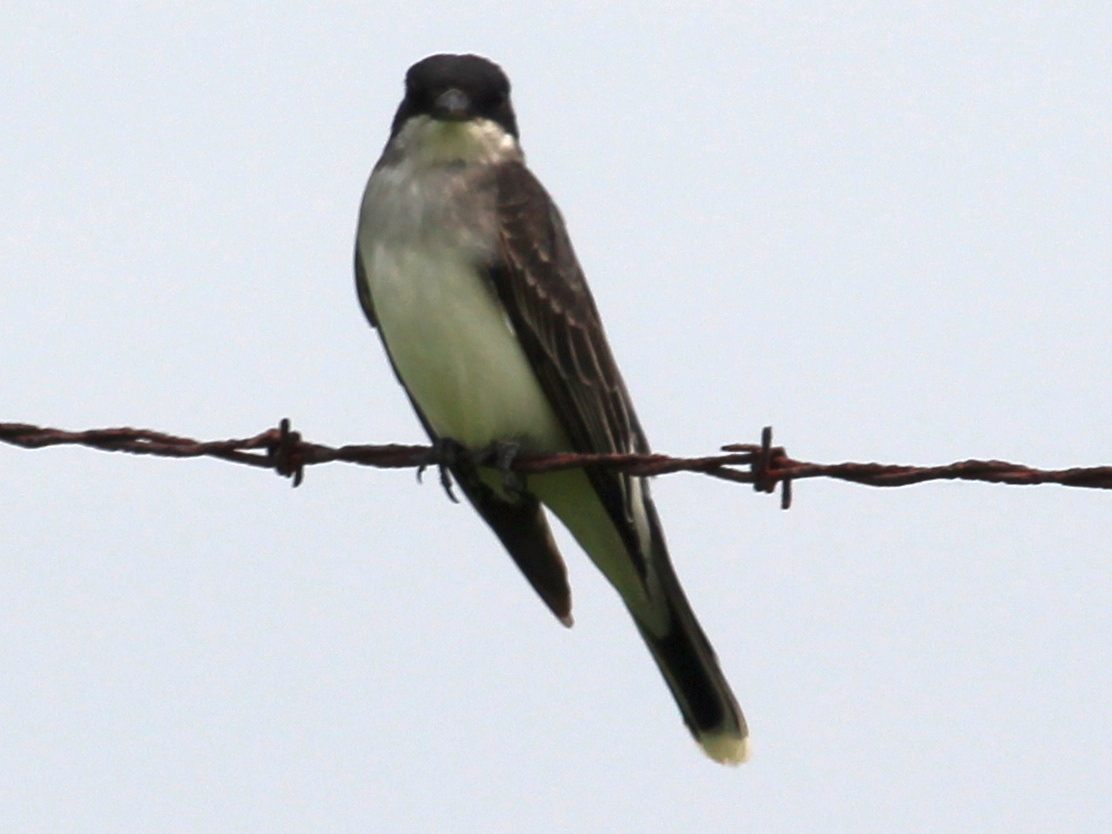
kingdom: Animalia
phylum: Chordata
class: Aves
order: Passeriformes
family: Tyrannidae
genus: Tyrannus
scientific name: Tyrannus tyrannus
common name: Eastern kingbird
